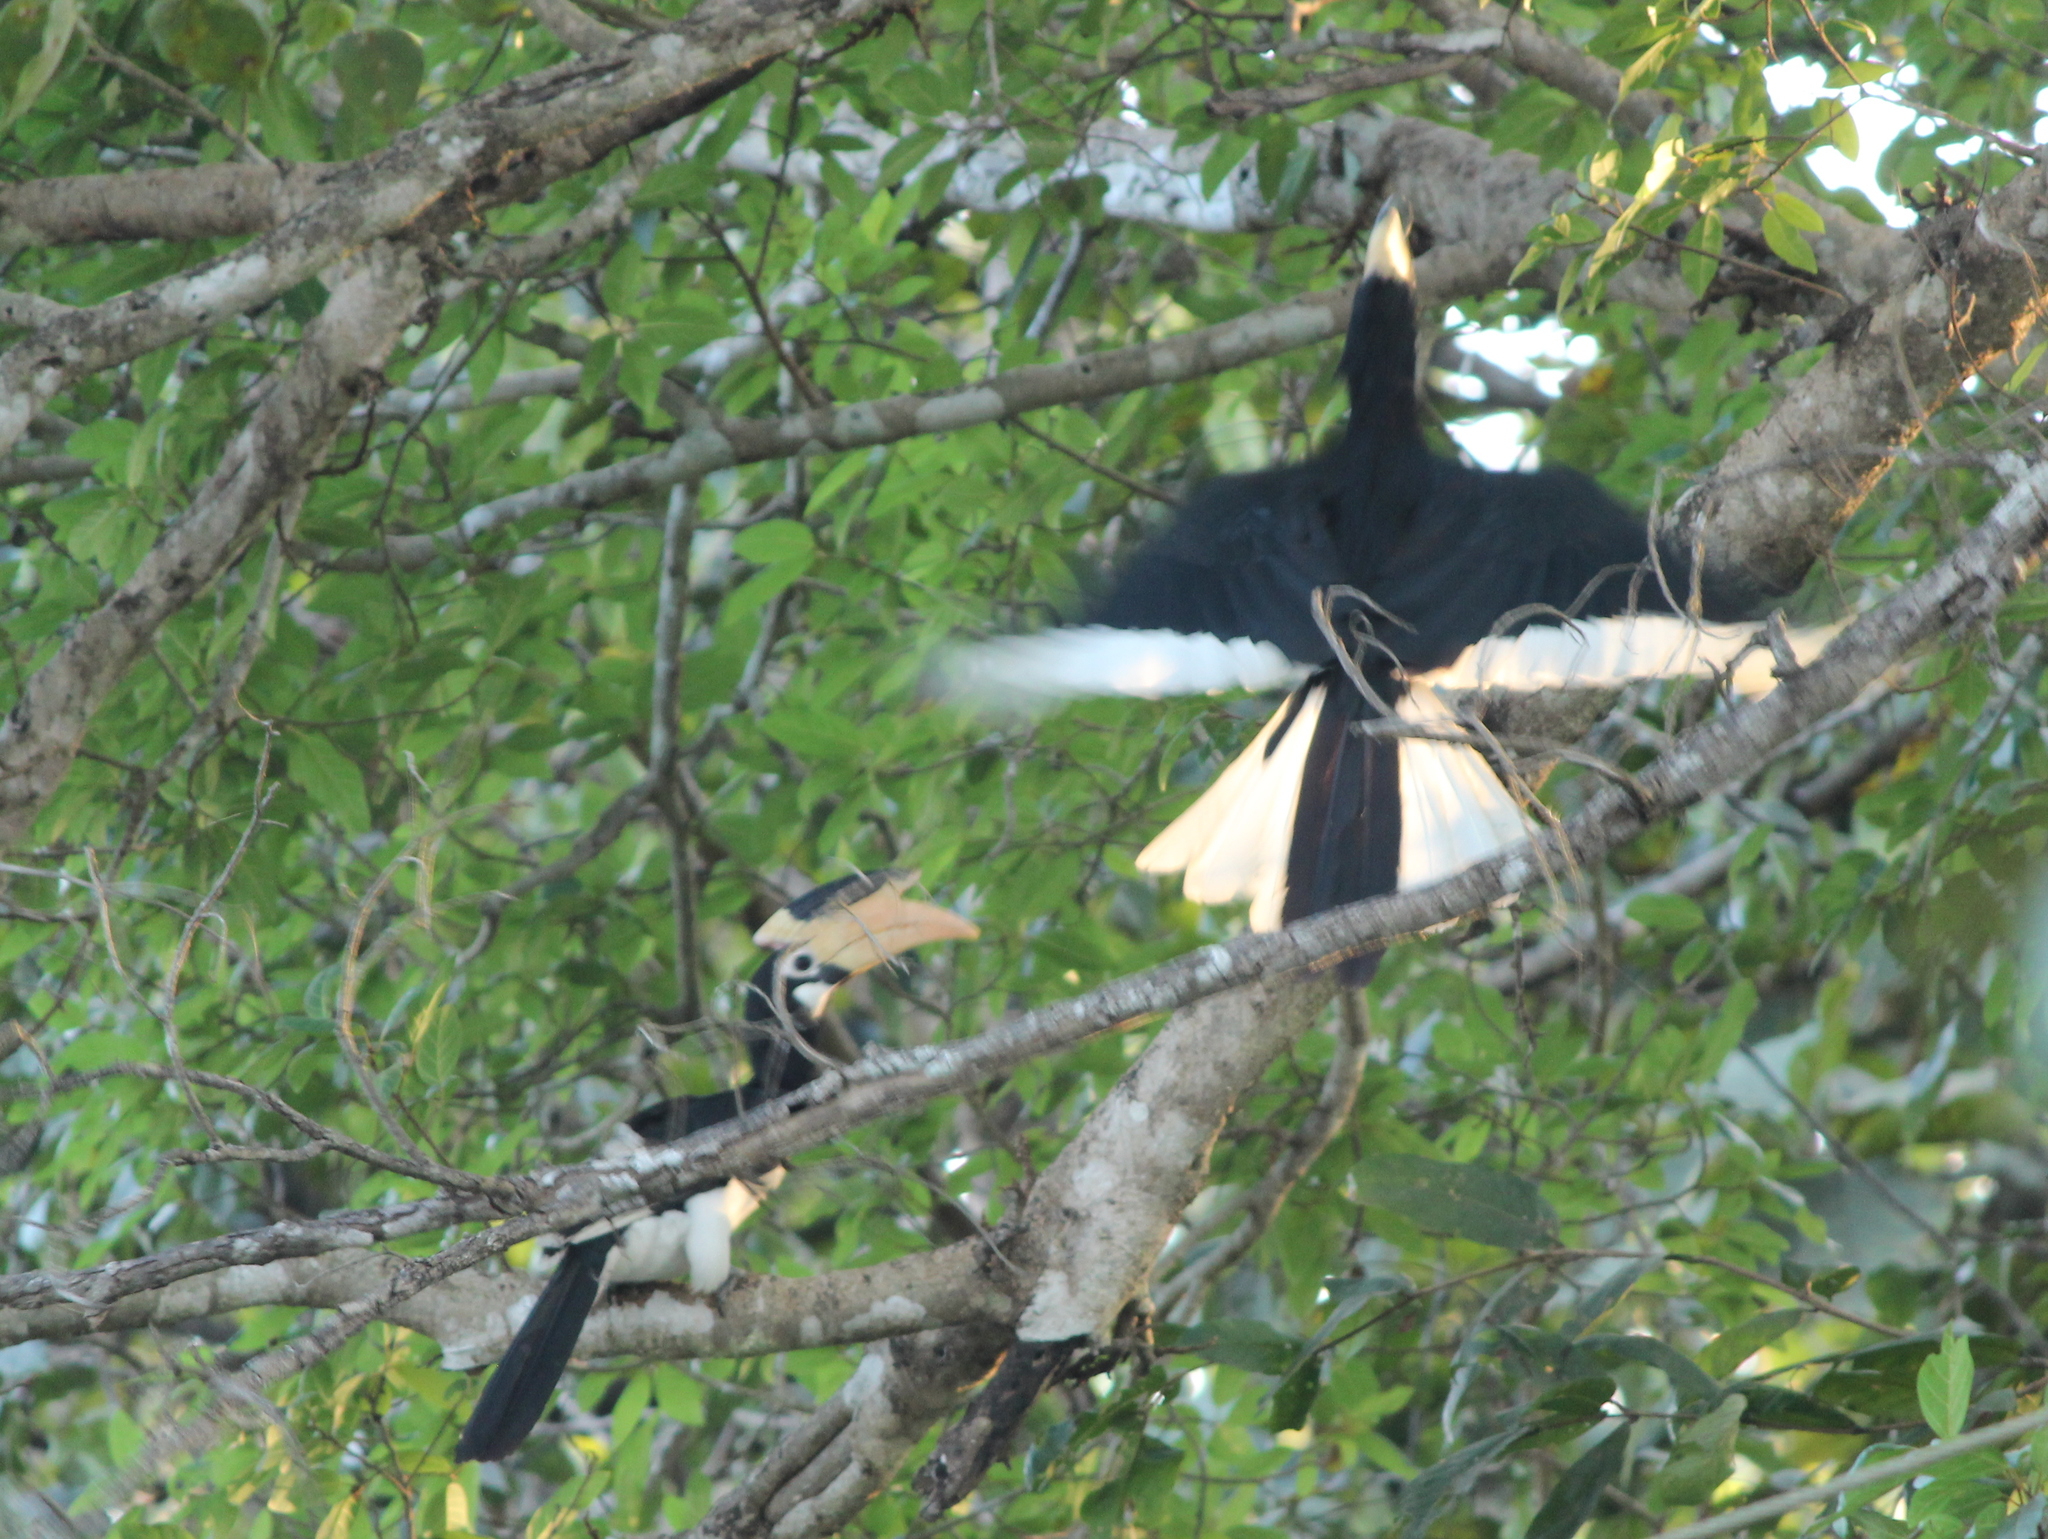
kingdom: Animalia
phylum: Chordata
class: Aves
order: Bucerotiformes
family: Bucerotidae
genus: Anthracoceros
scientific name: Anthracoceros coronatus
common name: Malabar pied hornbill
